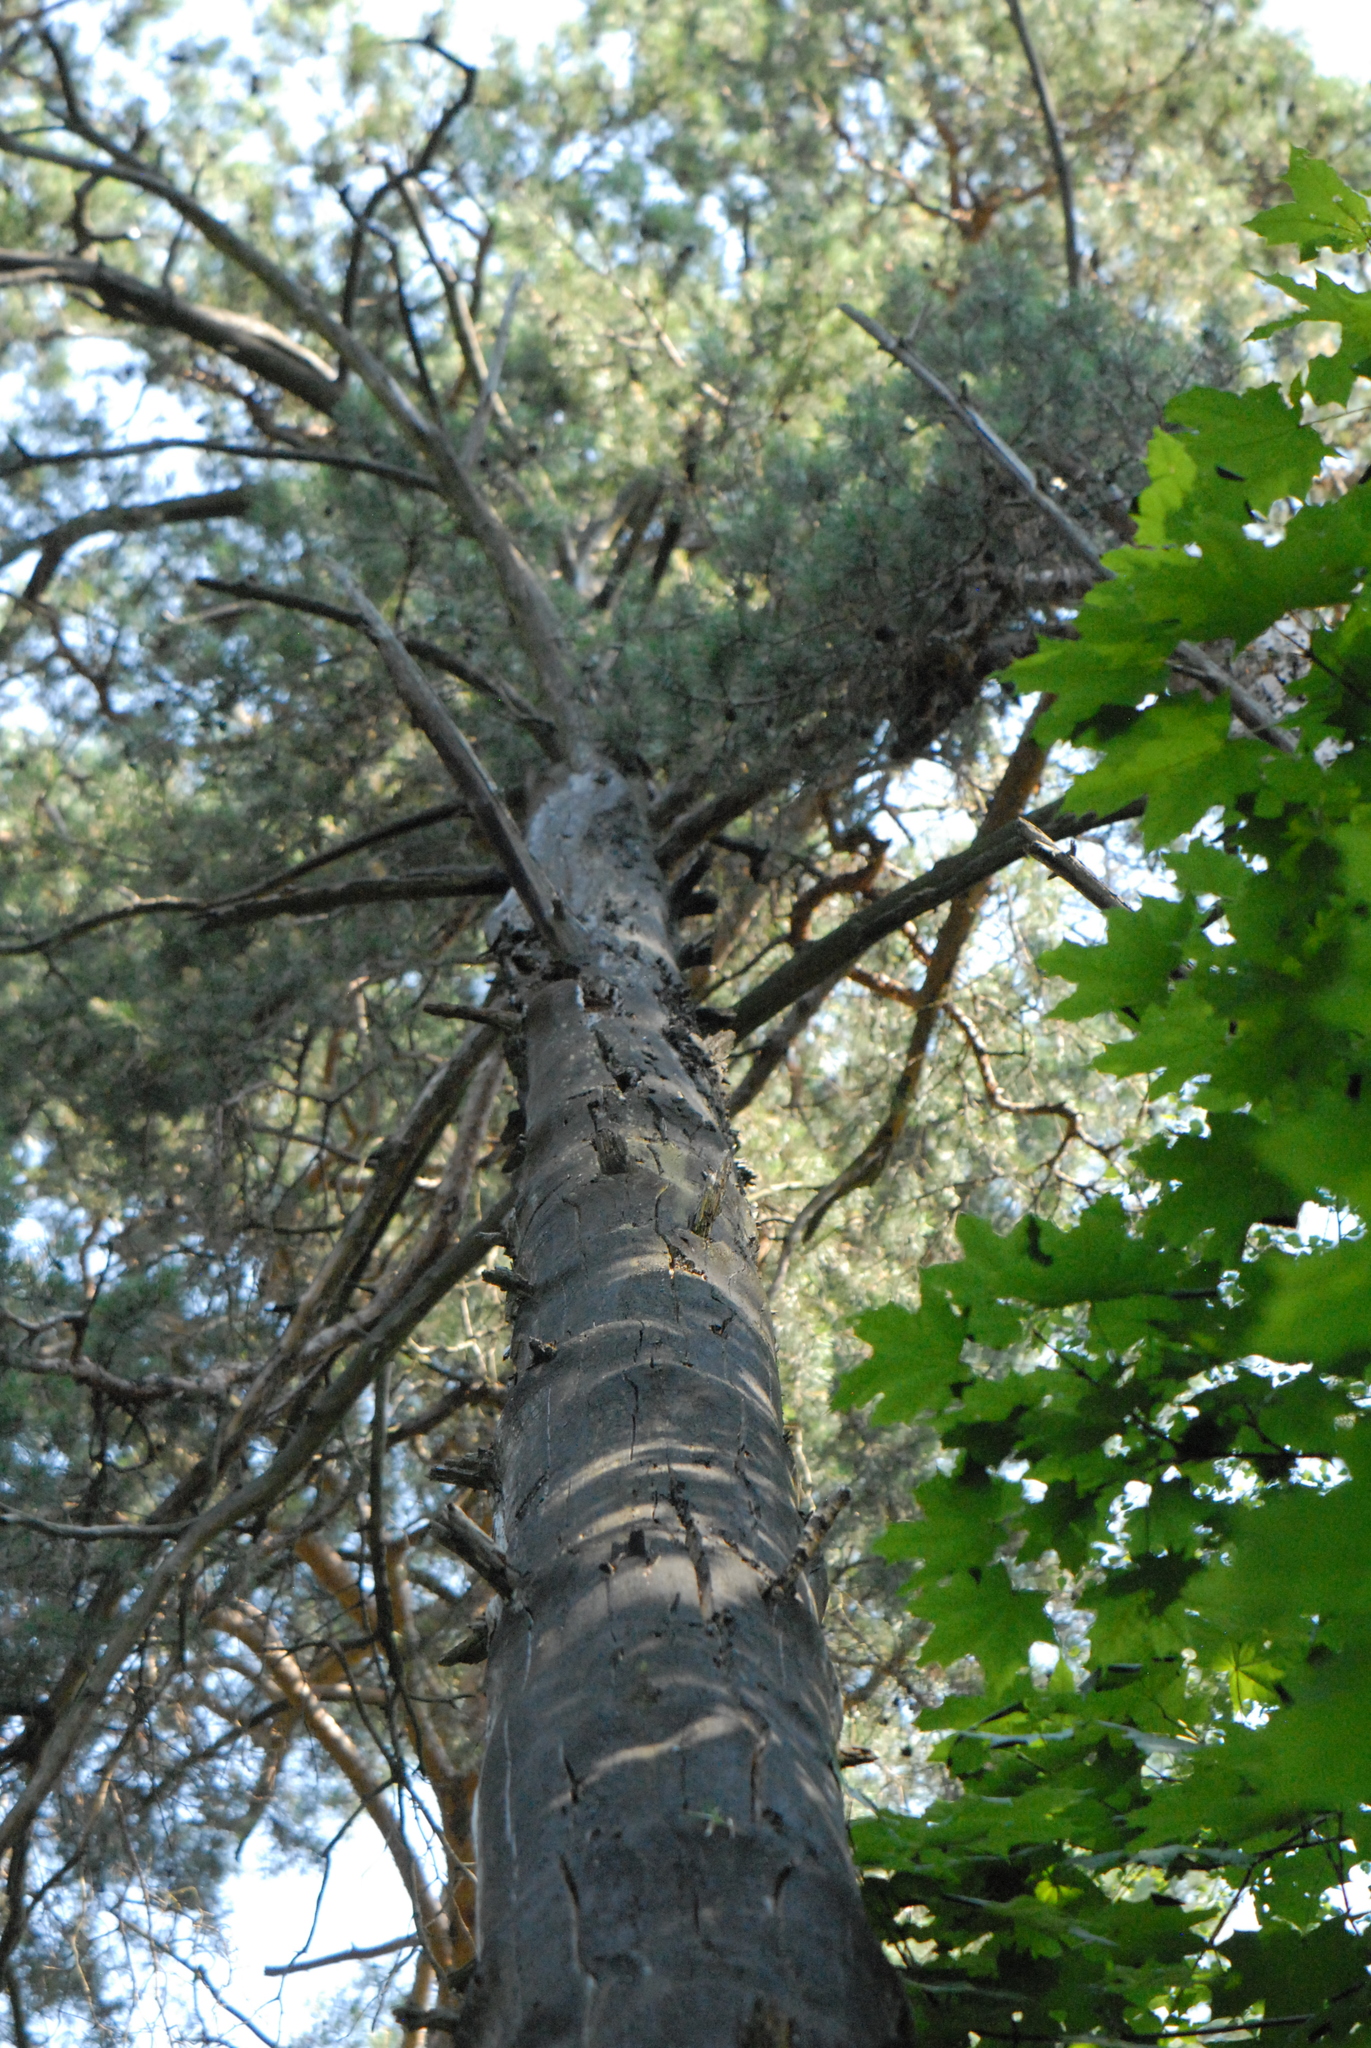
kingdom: Plantae
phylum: Tracheophyta
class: Pinopsida
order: Pinales
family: Pinaceae
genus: Pinus
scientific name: Pinus sylvestris
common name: Scots pine
